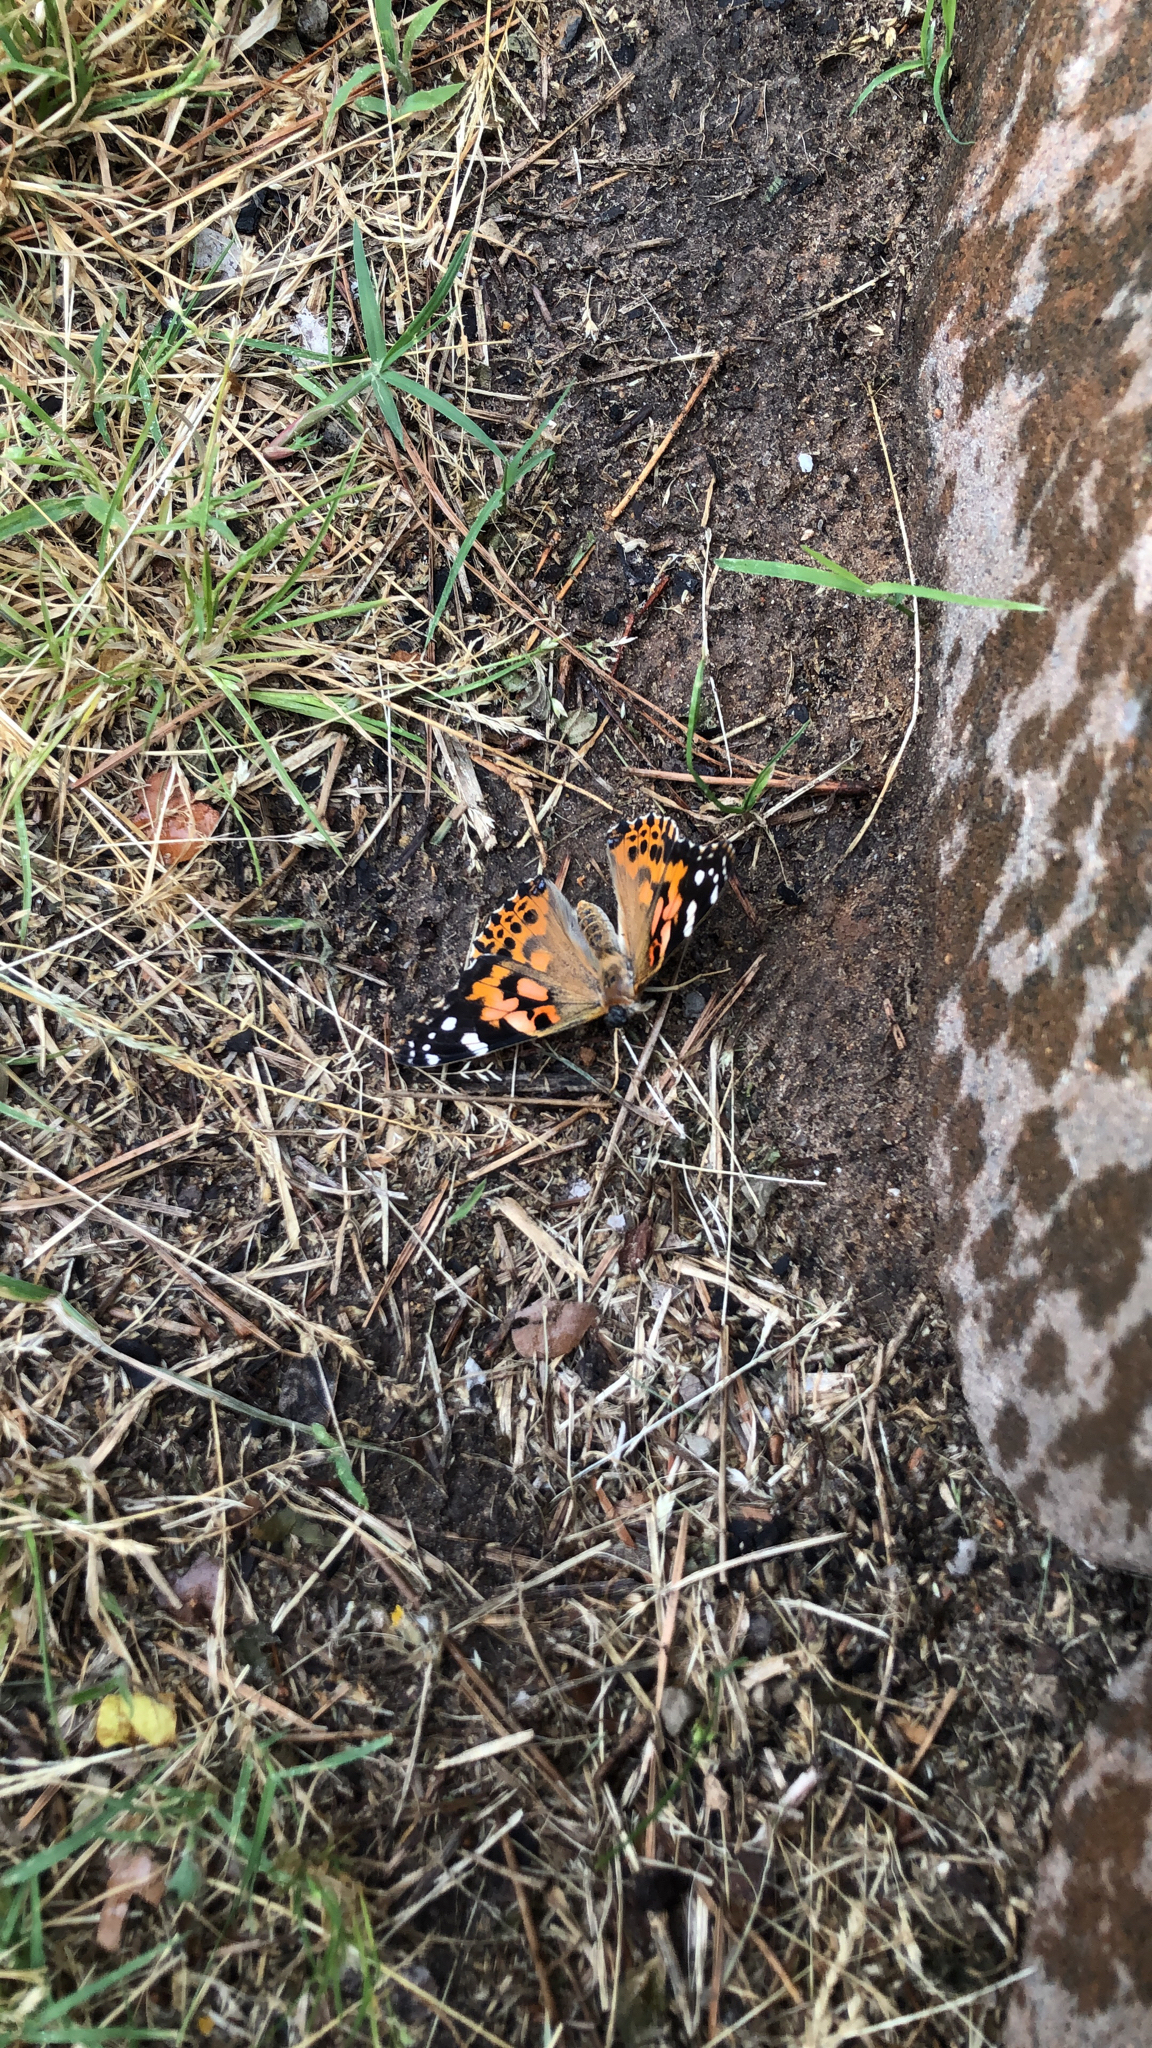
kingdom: Animalia
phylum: Arthropoda
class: Insecta
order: Lepidoptera
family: Nymphalidae
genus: Vanessa
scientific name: Vanessa cardui
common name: Painted lady
